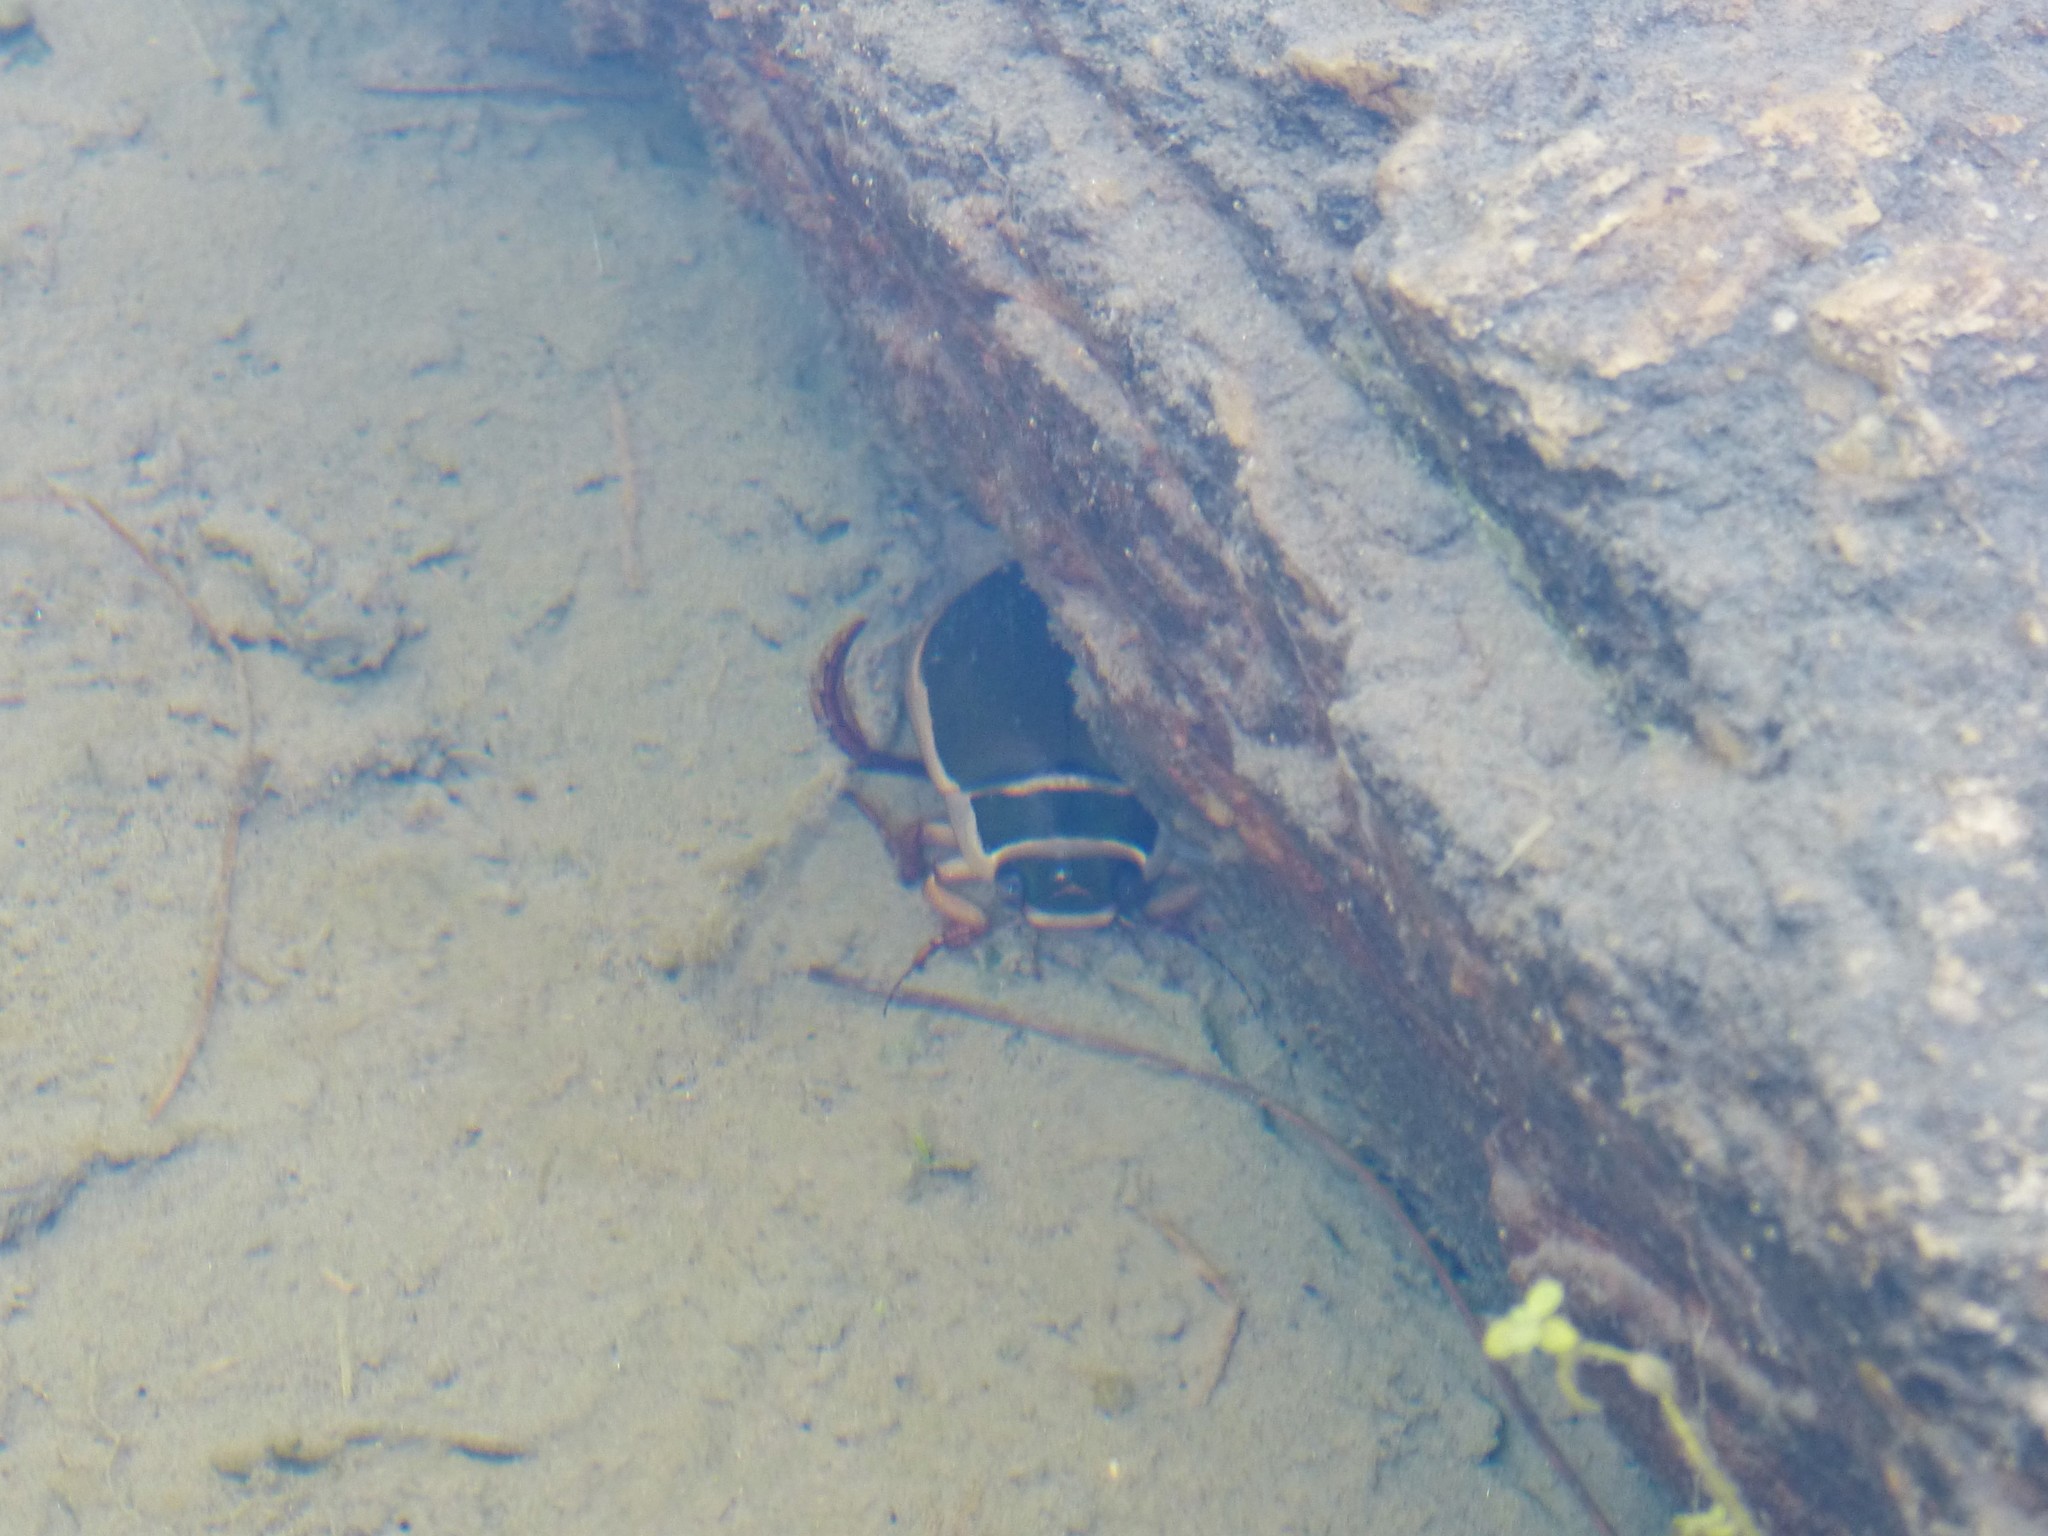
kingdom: Animalia
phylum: Arthropoda
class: Insecta
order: Coleoptera
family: Dytiscidae
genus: Dytiscus
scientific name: Dytiscus marginalis
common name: Great water beetle
